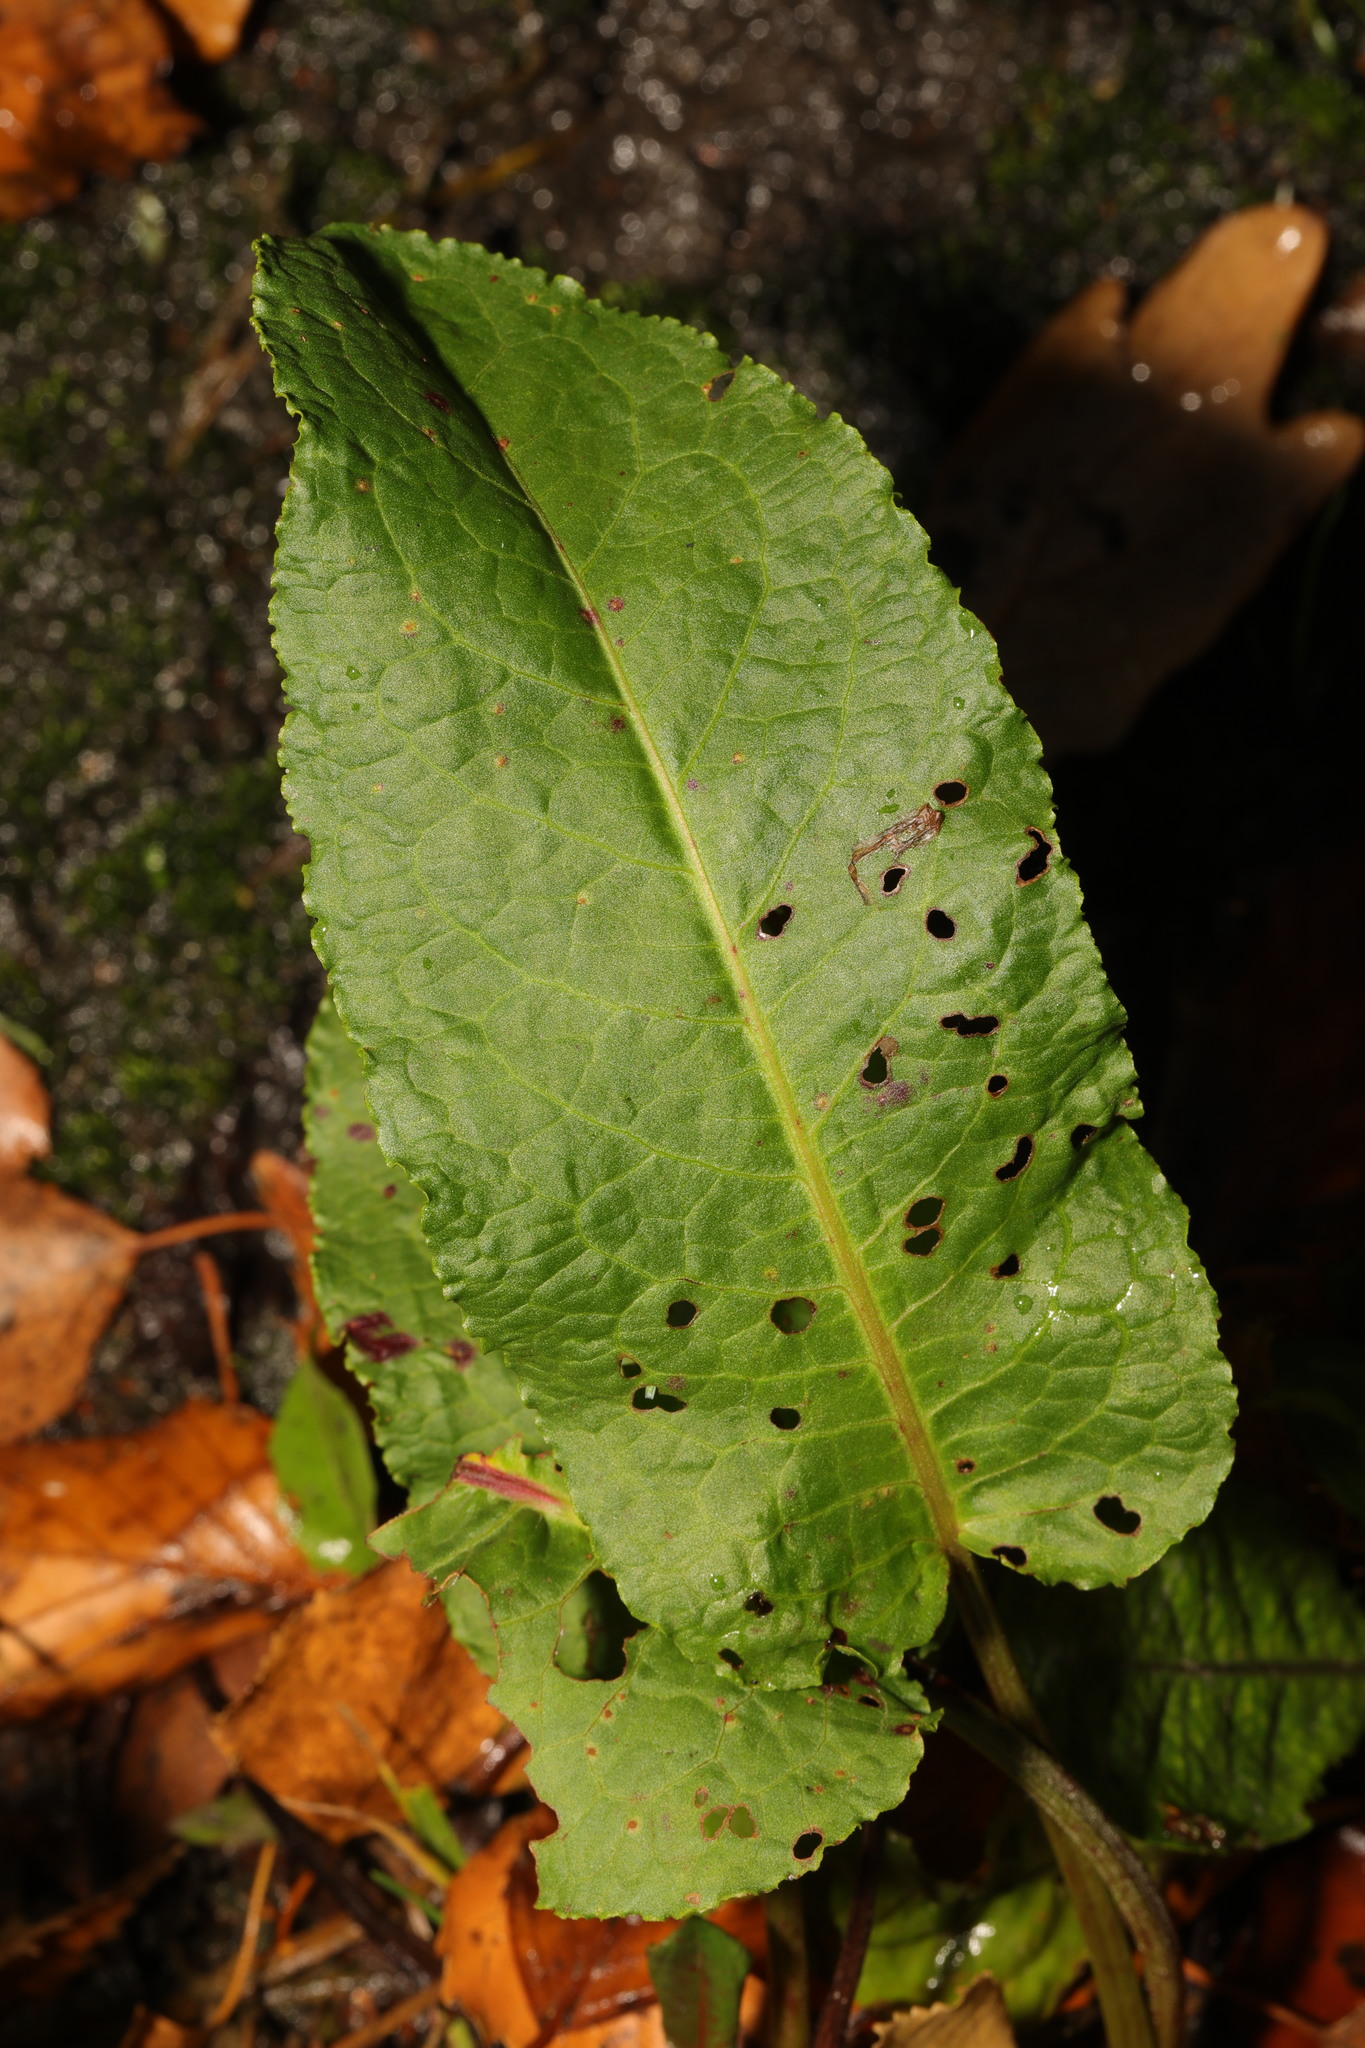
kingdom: Plantae
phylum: Tracheophyta
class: Magnoliopsida
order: Caryophyllales
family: Polygonaceae
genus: Rumex
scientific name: Rumex obtusifolius
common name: Bitter dock
